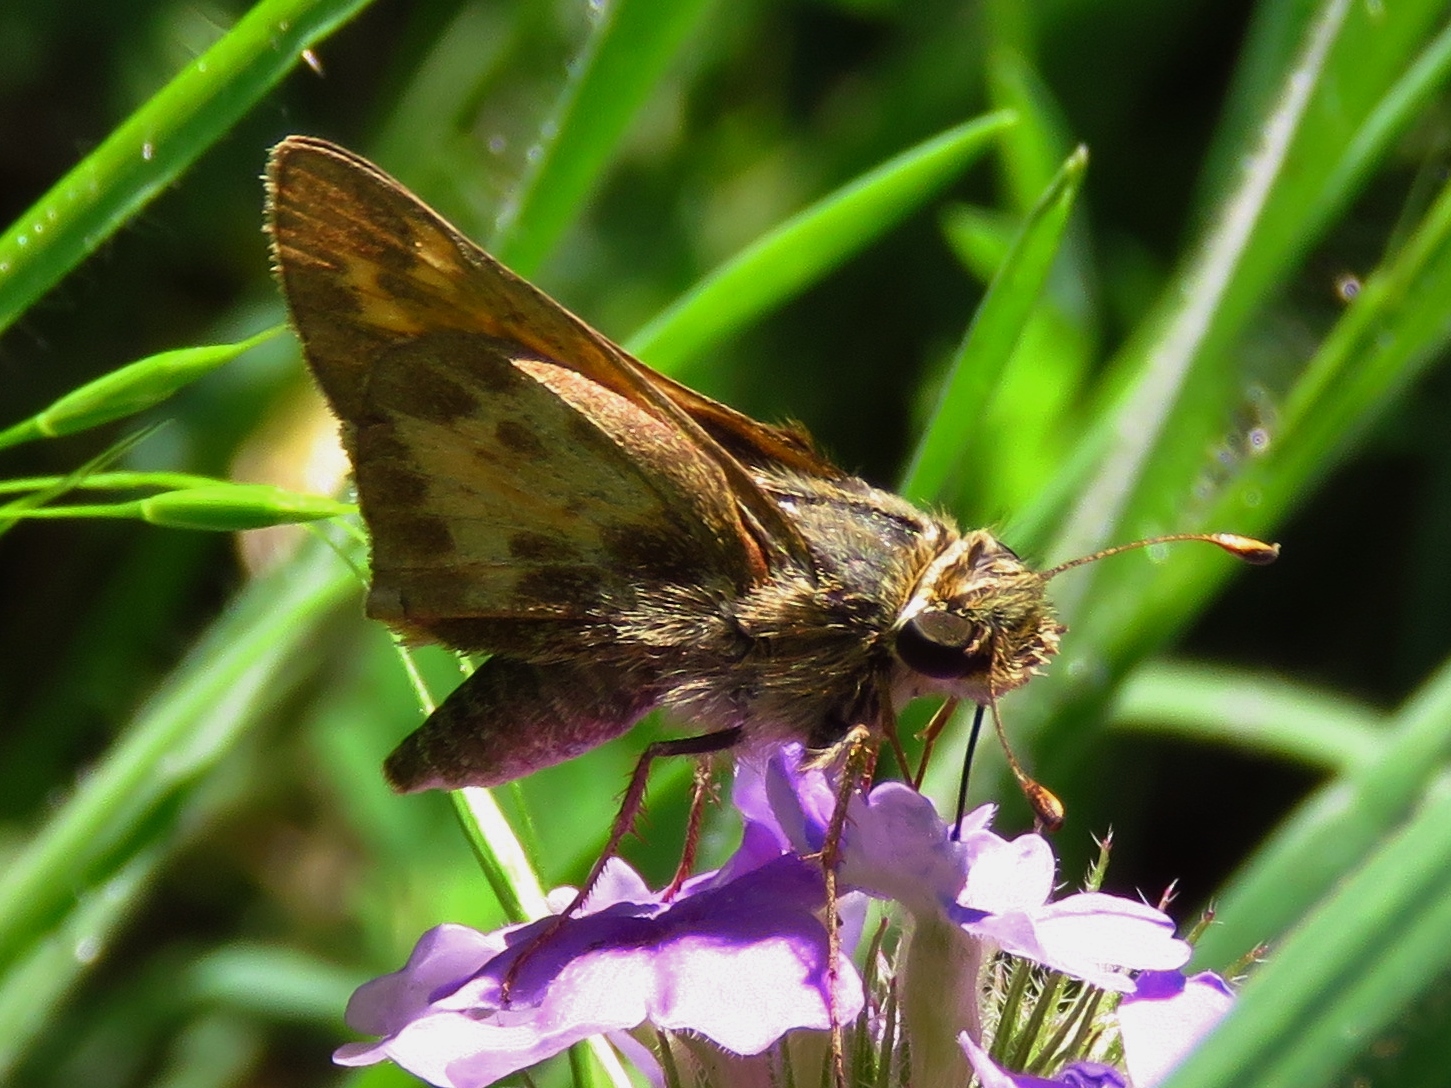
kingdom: Animalia
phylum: Arthropoda
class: Insecta
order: Lepidoptera
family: Hesperiidae
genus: Atalopedes
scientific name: Atalopedes
